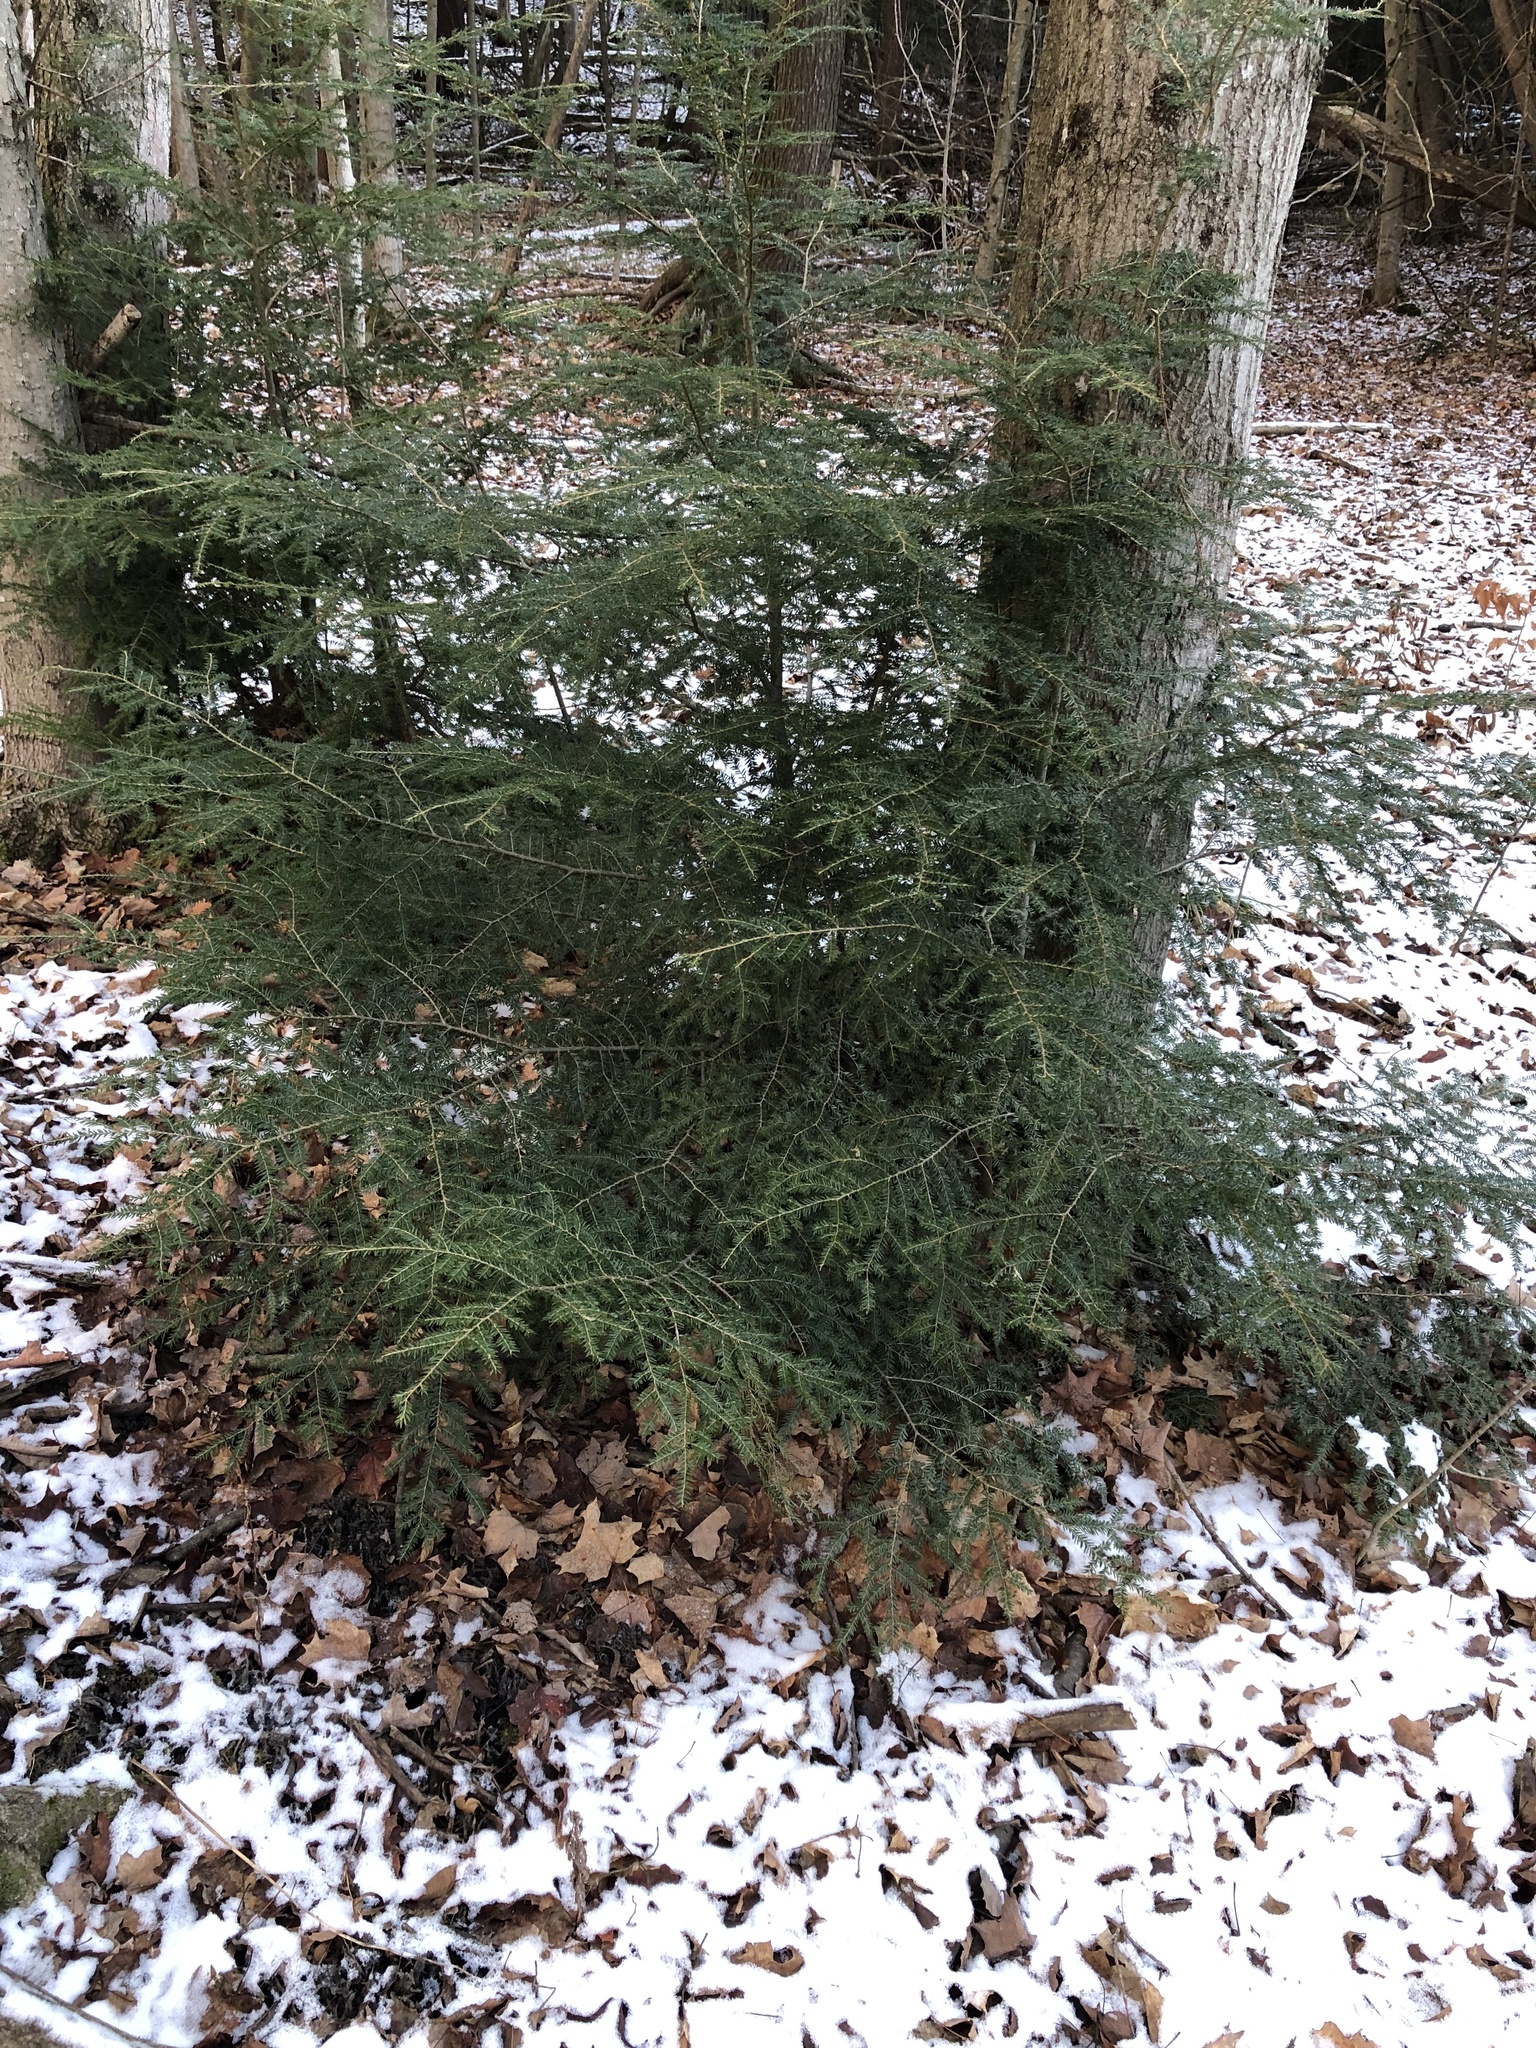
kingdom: Plantae
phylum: Tracheophyta
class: Pinopsida
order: Pinales
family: Pinaceae
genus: Tsuga
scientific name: Tsuga canadensis
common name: Eastern hemlock
